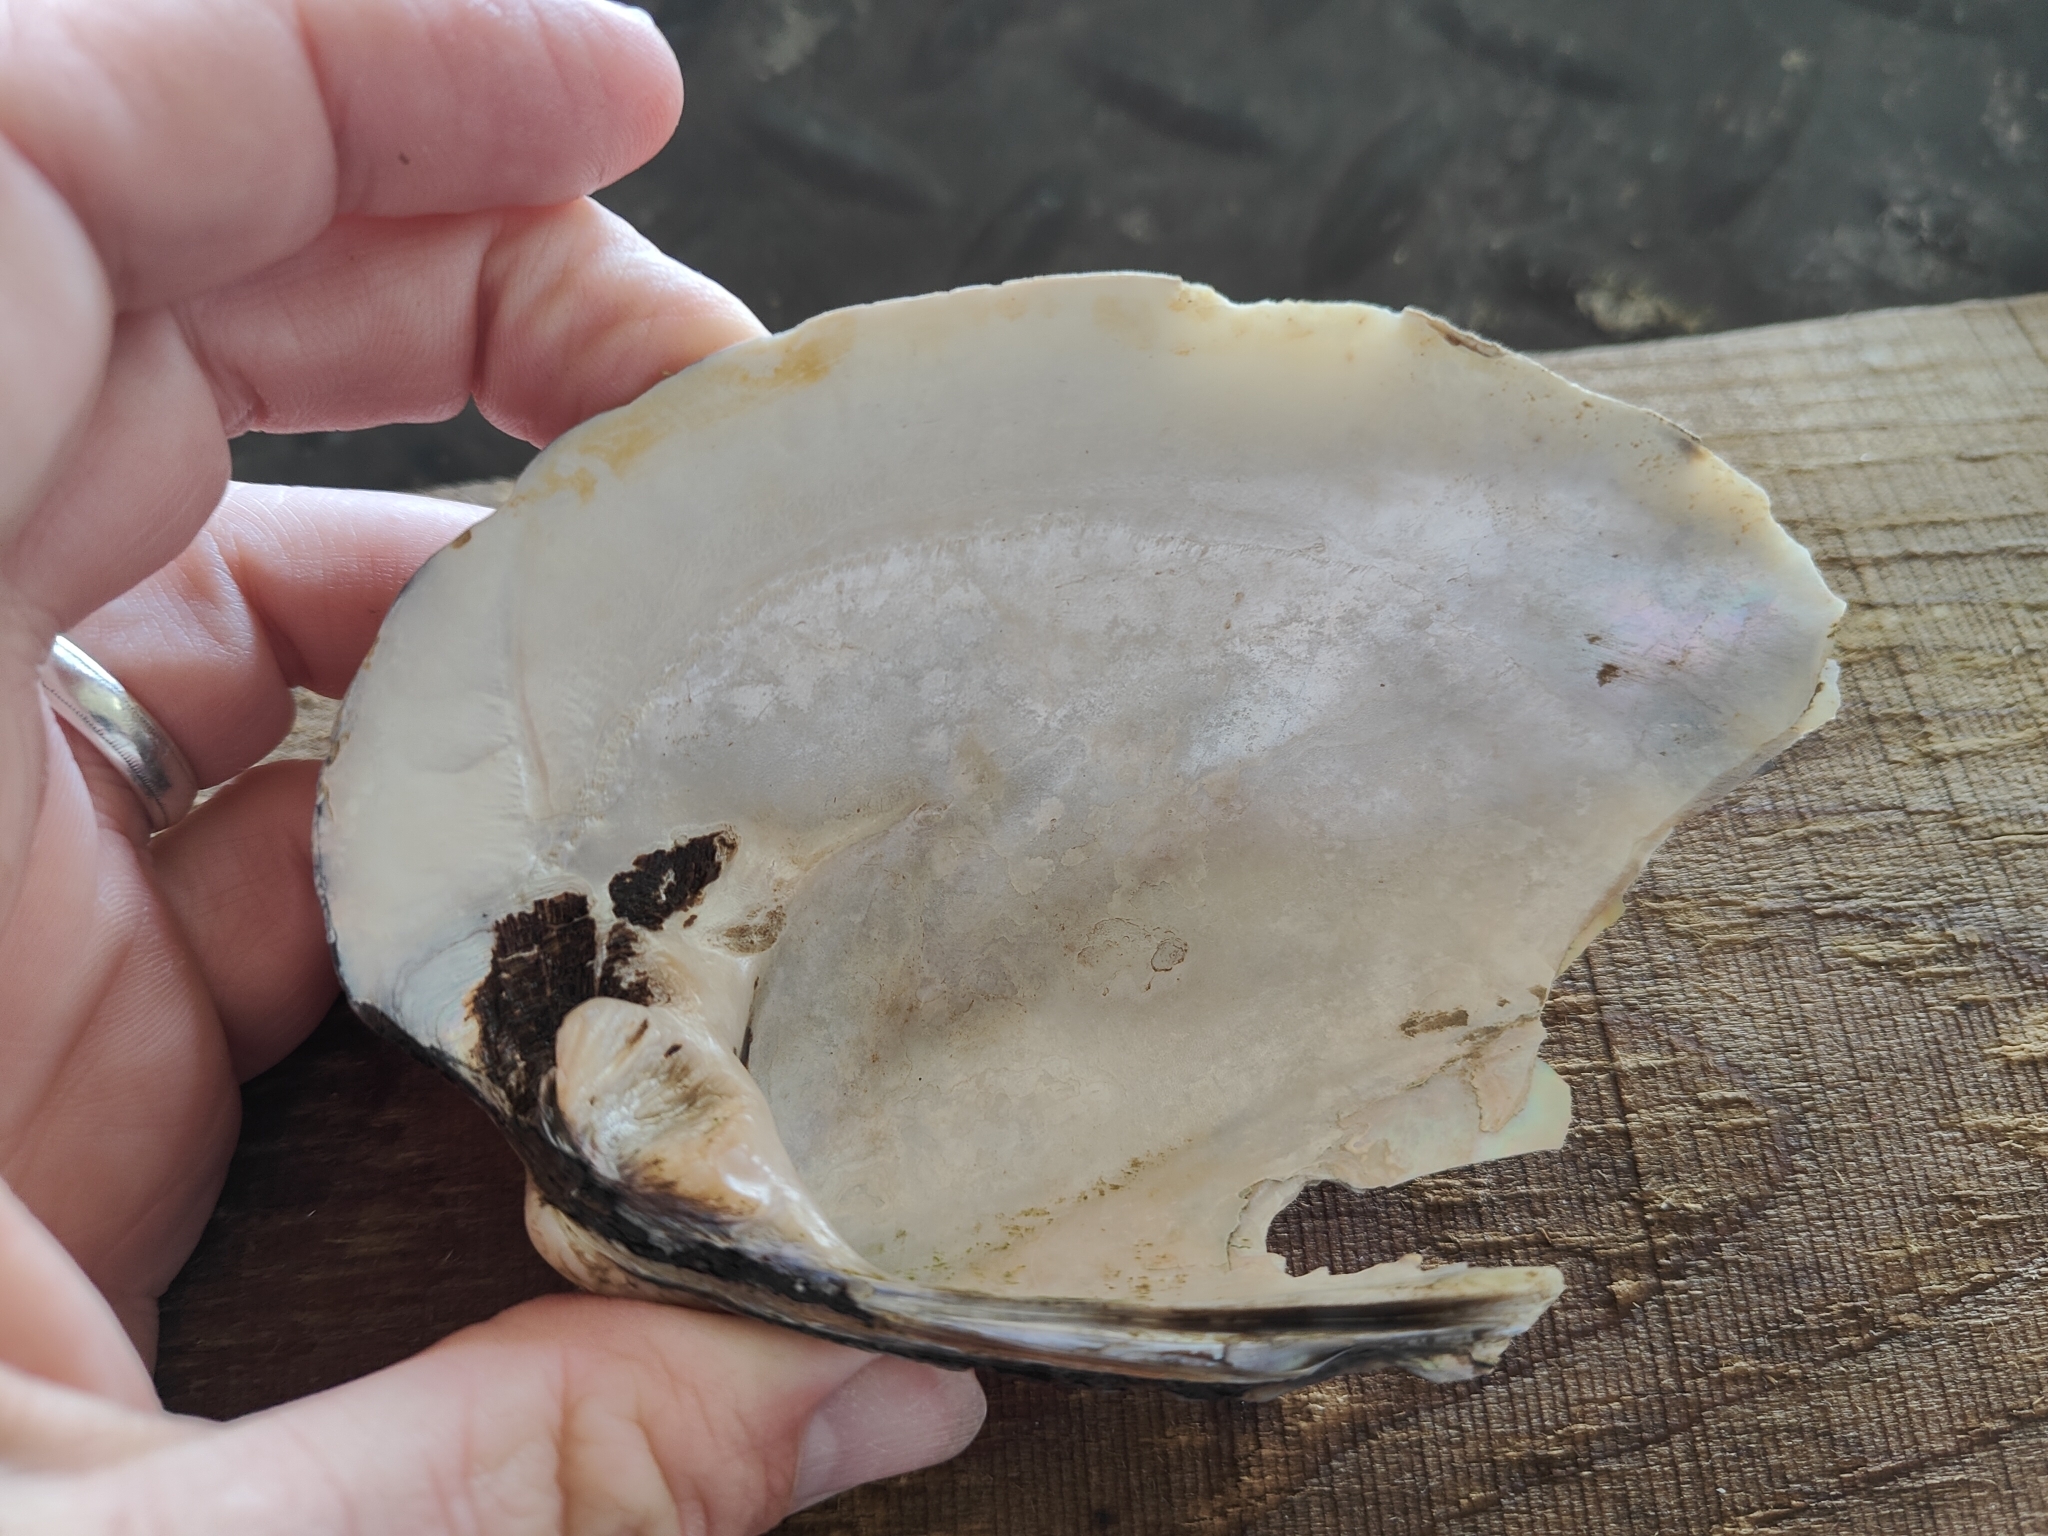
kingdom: Animalia
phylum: Mollusca
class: Bivalvia
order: Unionida
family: Unionidae
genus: Amblema
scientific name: Amblema plicata
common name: Threeridge
